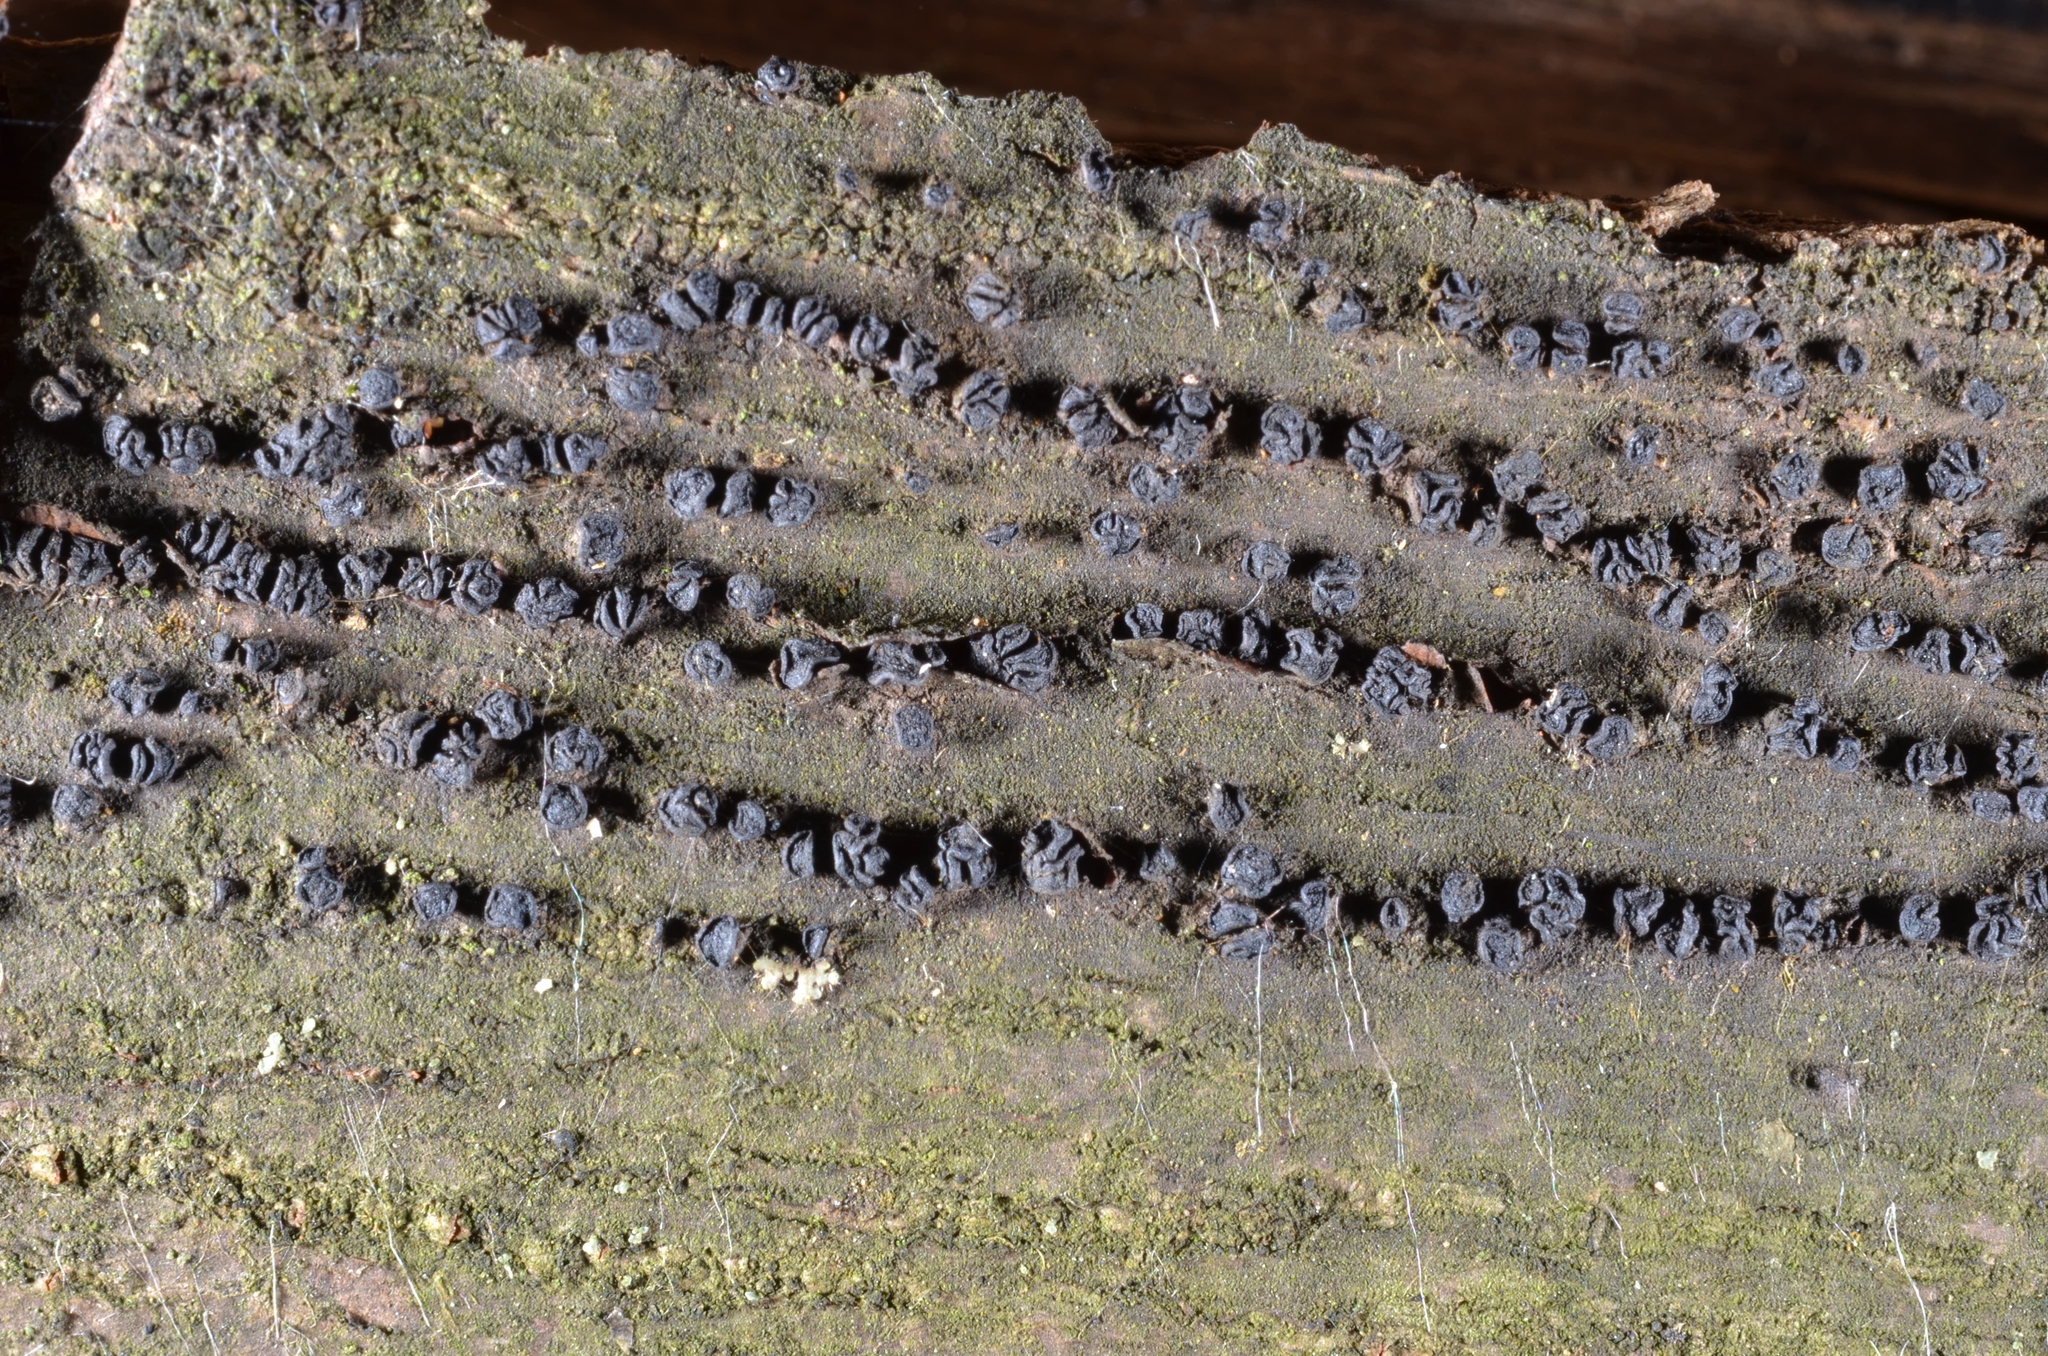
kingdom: Fungi
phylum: Ascomycota
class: Leotiomycetes
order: Helotiales
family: Dermateaceae
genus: Neodermea
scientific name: Neodermea acerina
